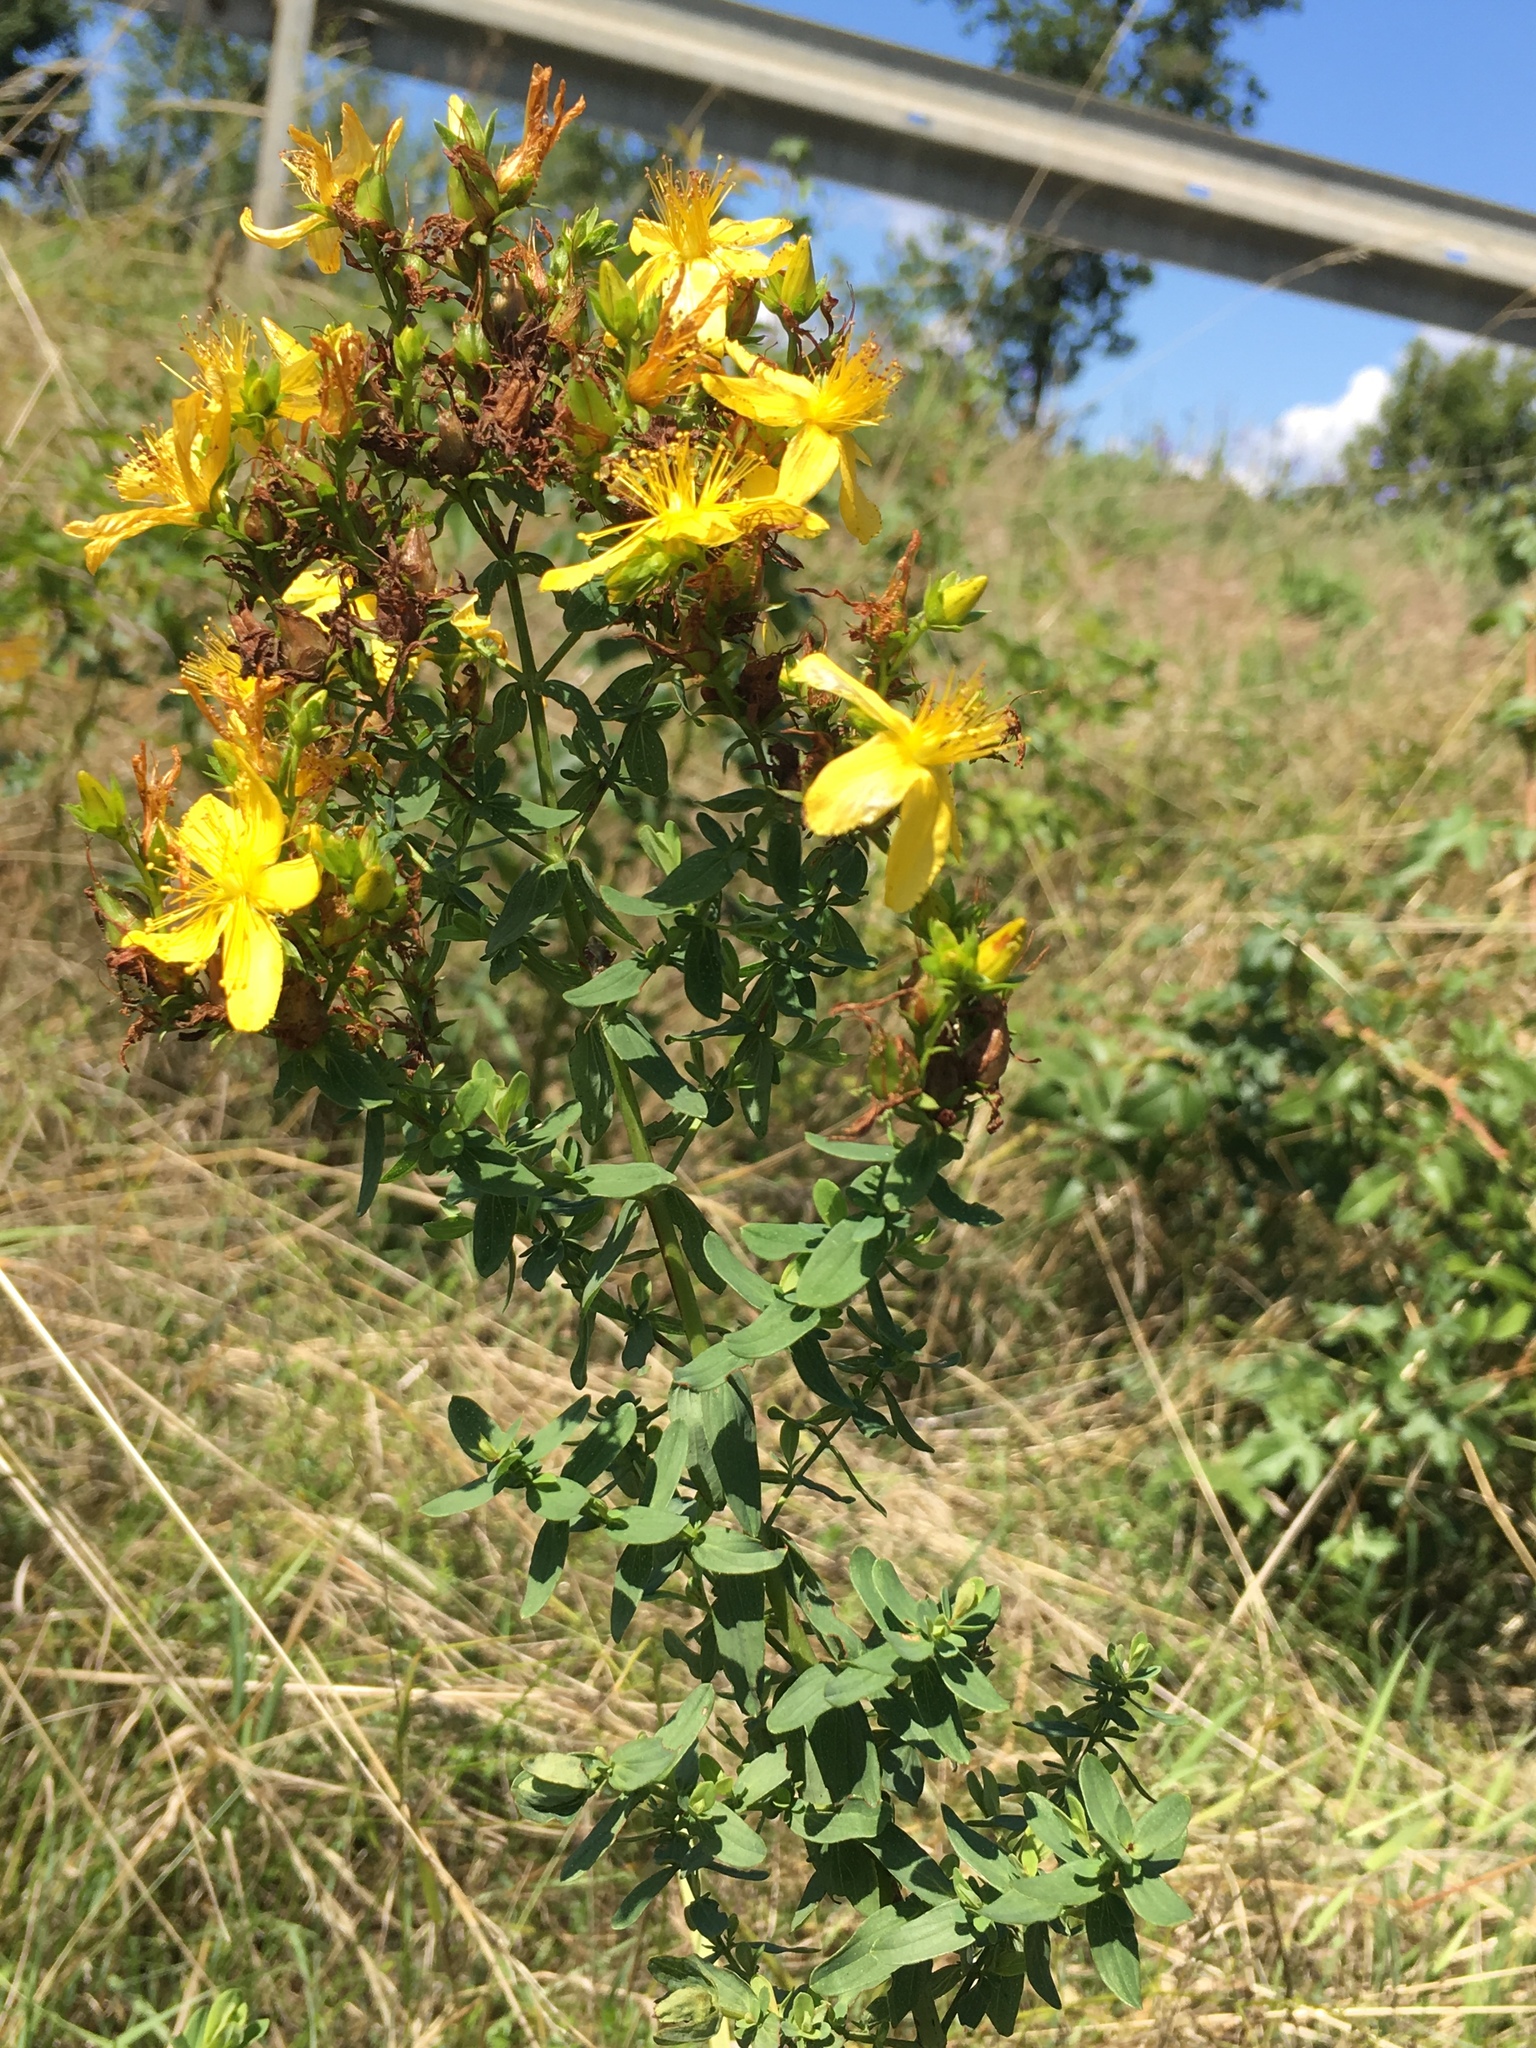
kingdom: Plantae
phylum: Tracheophyta
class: Magnoliopsida
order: Malpighiales
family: Hypericaceae
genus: Hypericum
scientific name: Hypericum perforatum
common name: Common st. johnswort
